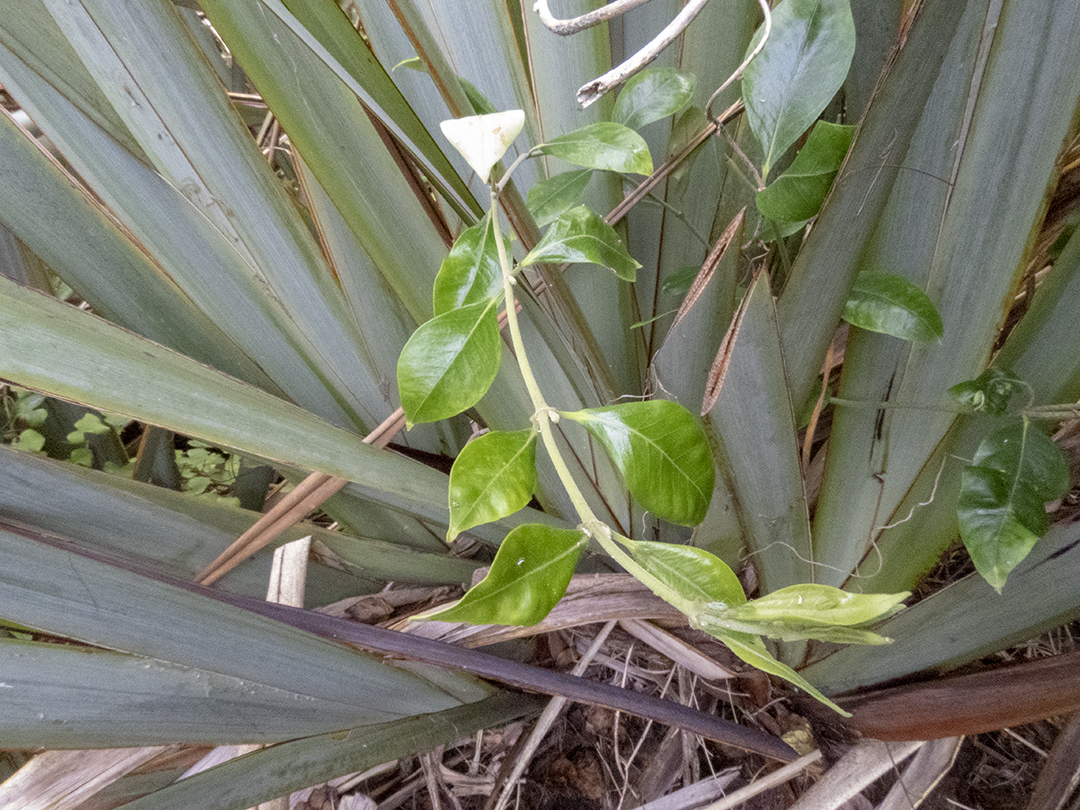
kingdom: Plantae
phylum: Tracheophyta
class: Magnoliopsida
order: Gentianales
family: Apocynaceae
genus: Parsonsia
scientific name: Parsonsia heterophylla
